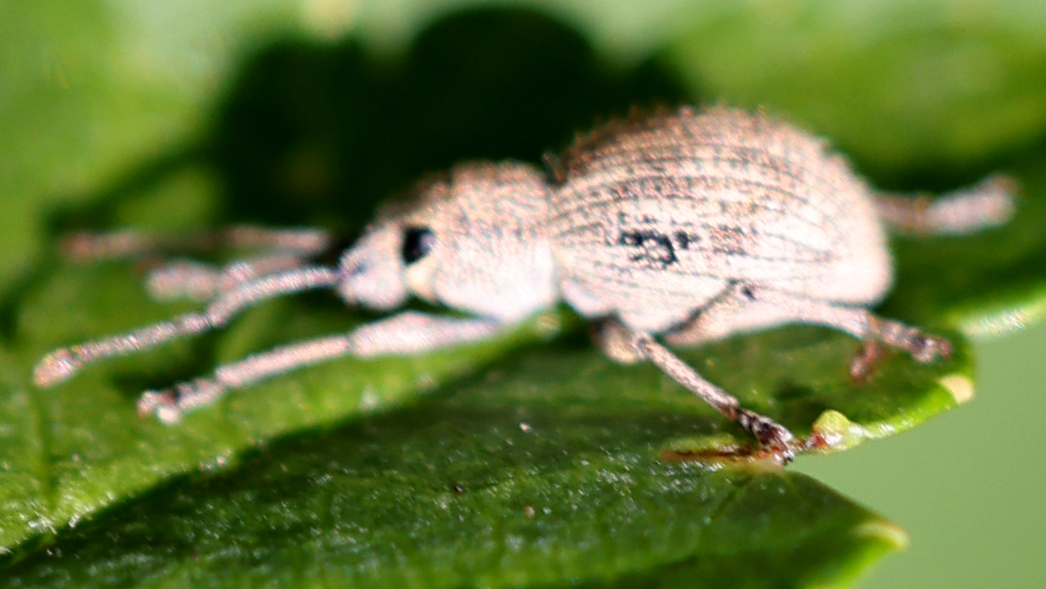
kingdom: Animalia
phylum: Arthropoda
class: Insecta
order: Coleoptera
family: Curculionidae
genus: Calomycterus
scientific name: Calomycterus setarius
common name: Weevil
